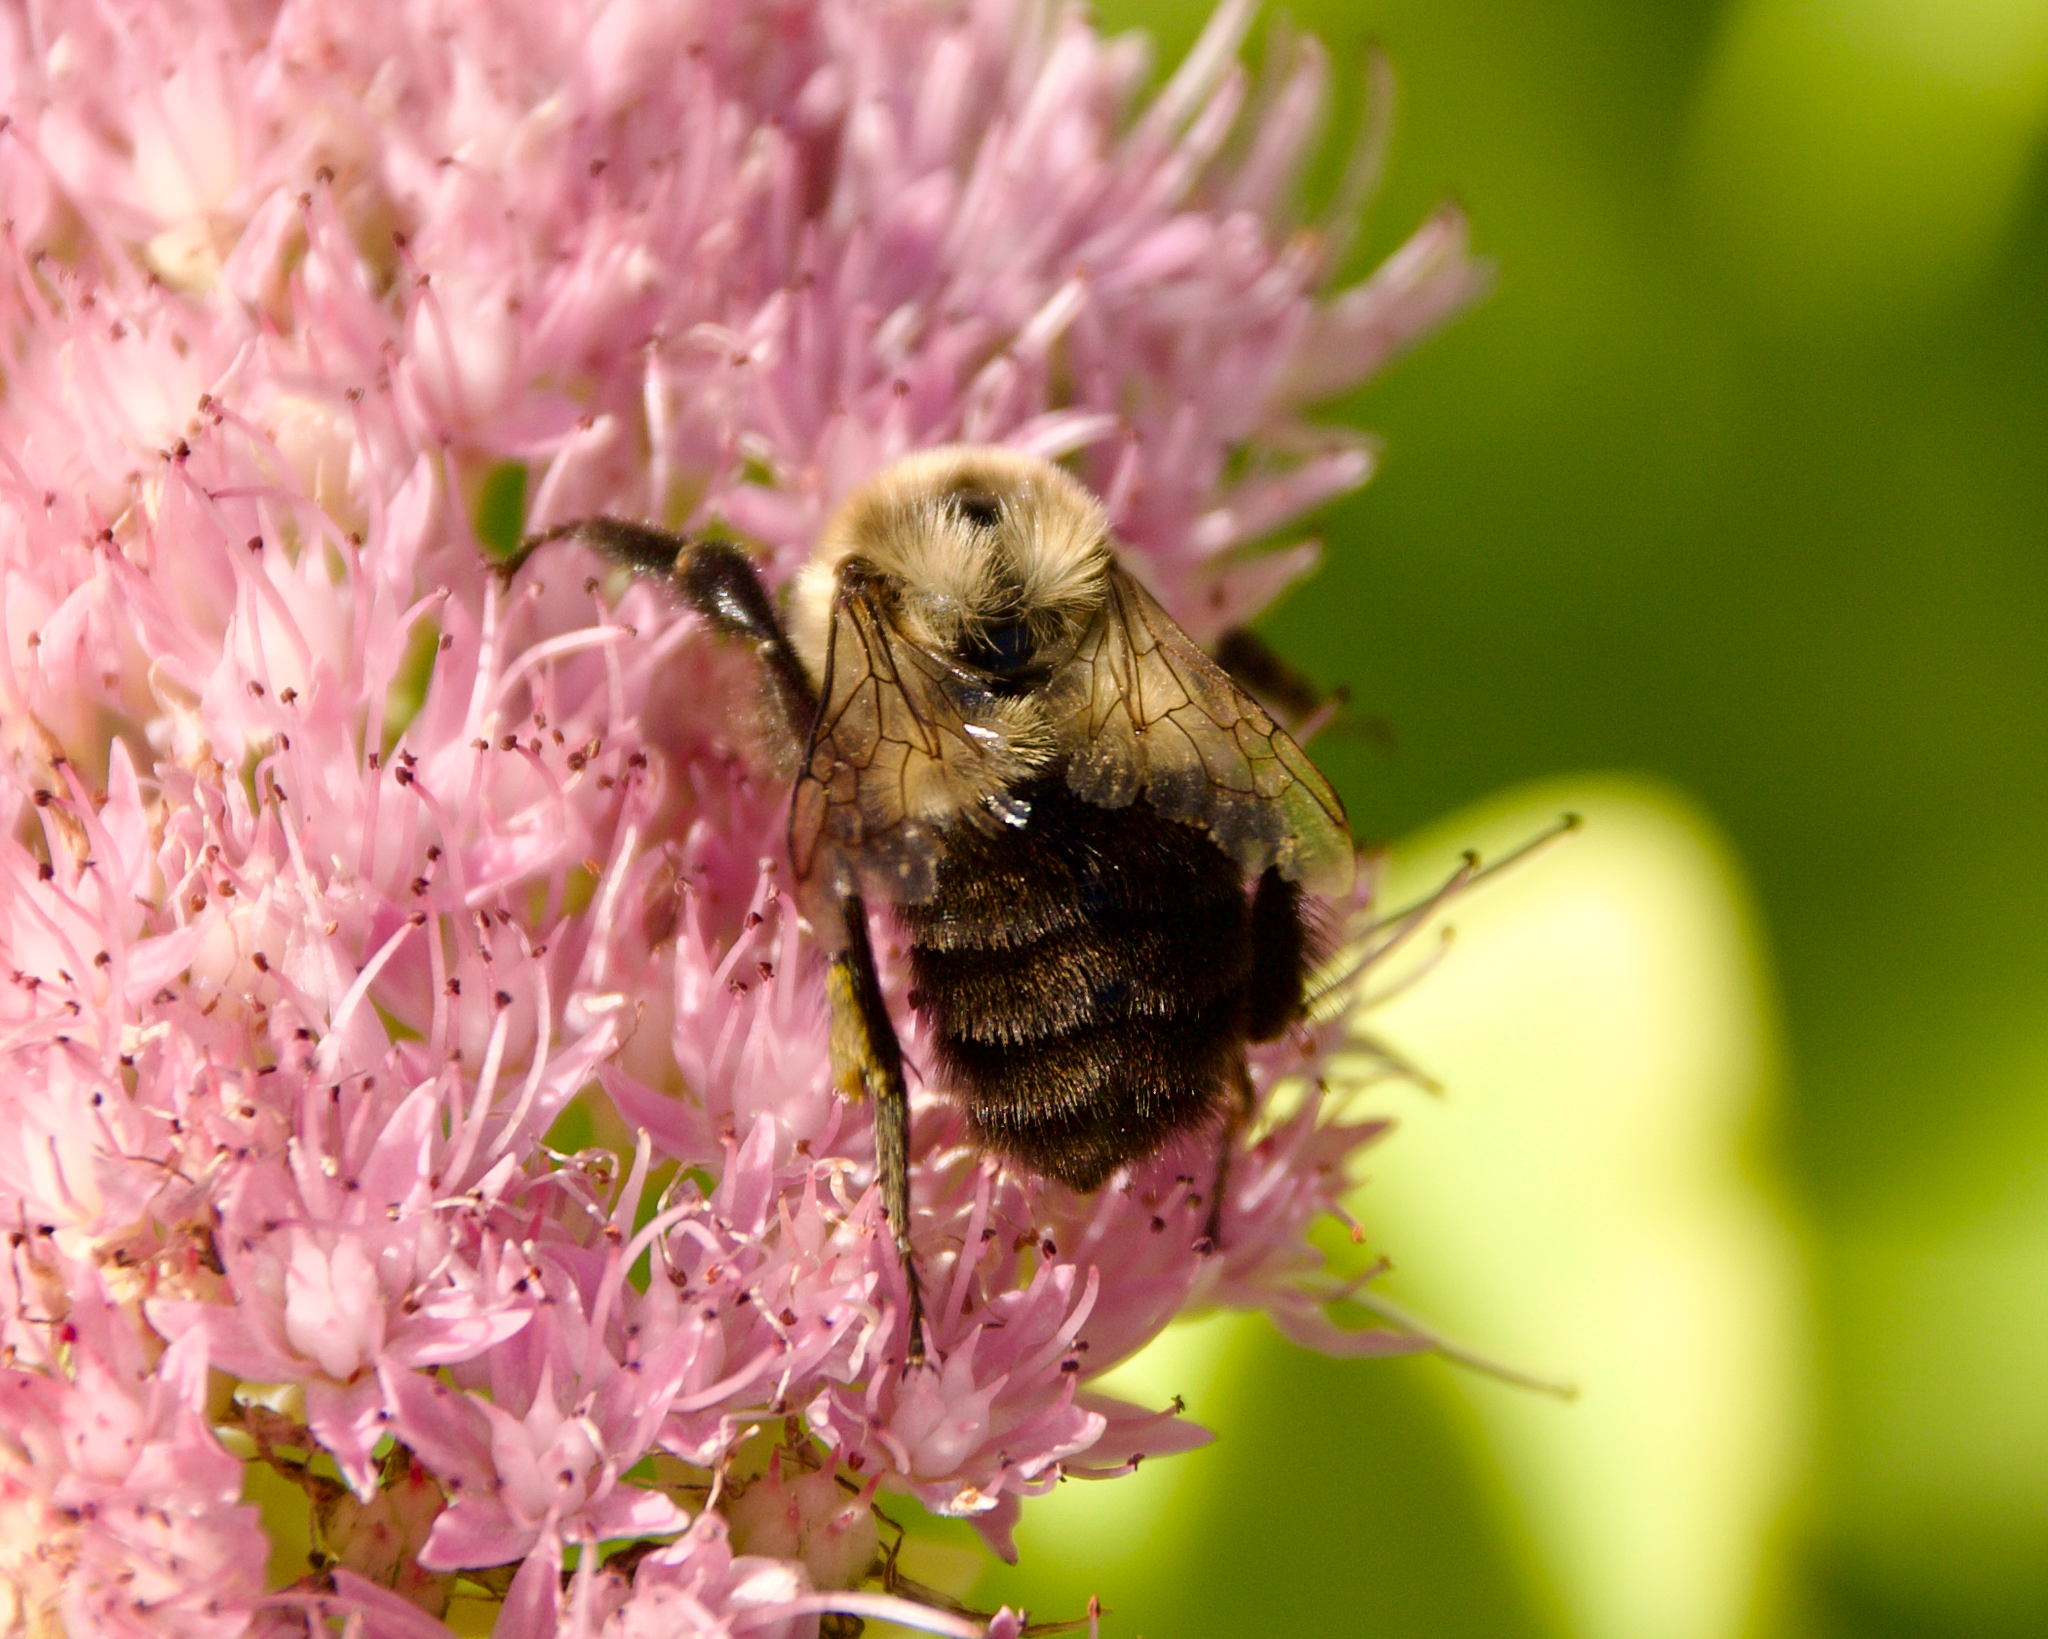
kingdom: Animalia
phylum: Arthropoda
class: Insecta
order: Hymenoptera
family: Apidae
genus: Bombus
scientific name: Bombus impatiens
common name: Common eastern bumble bee
